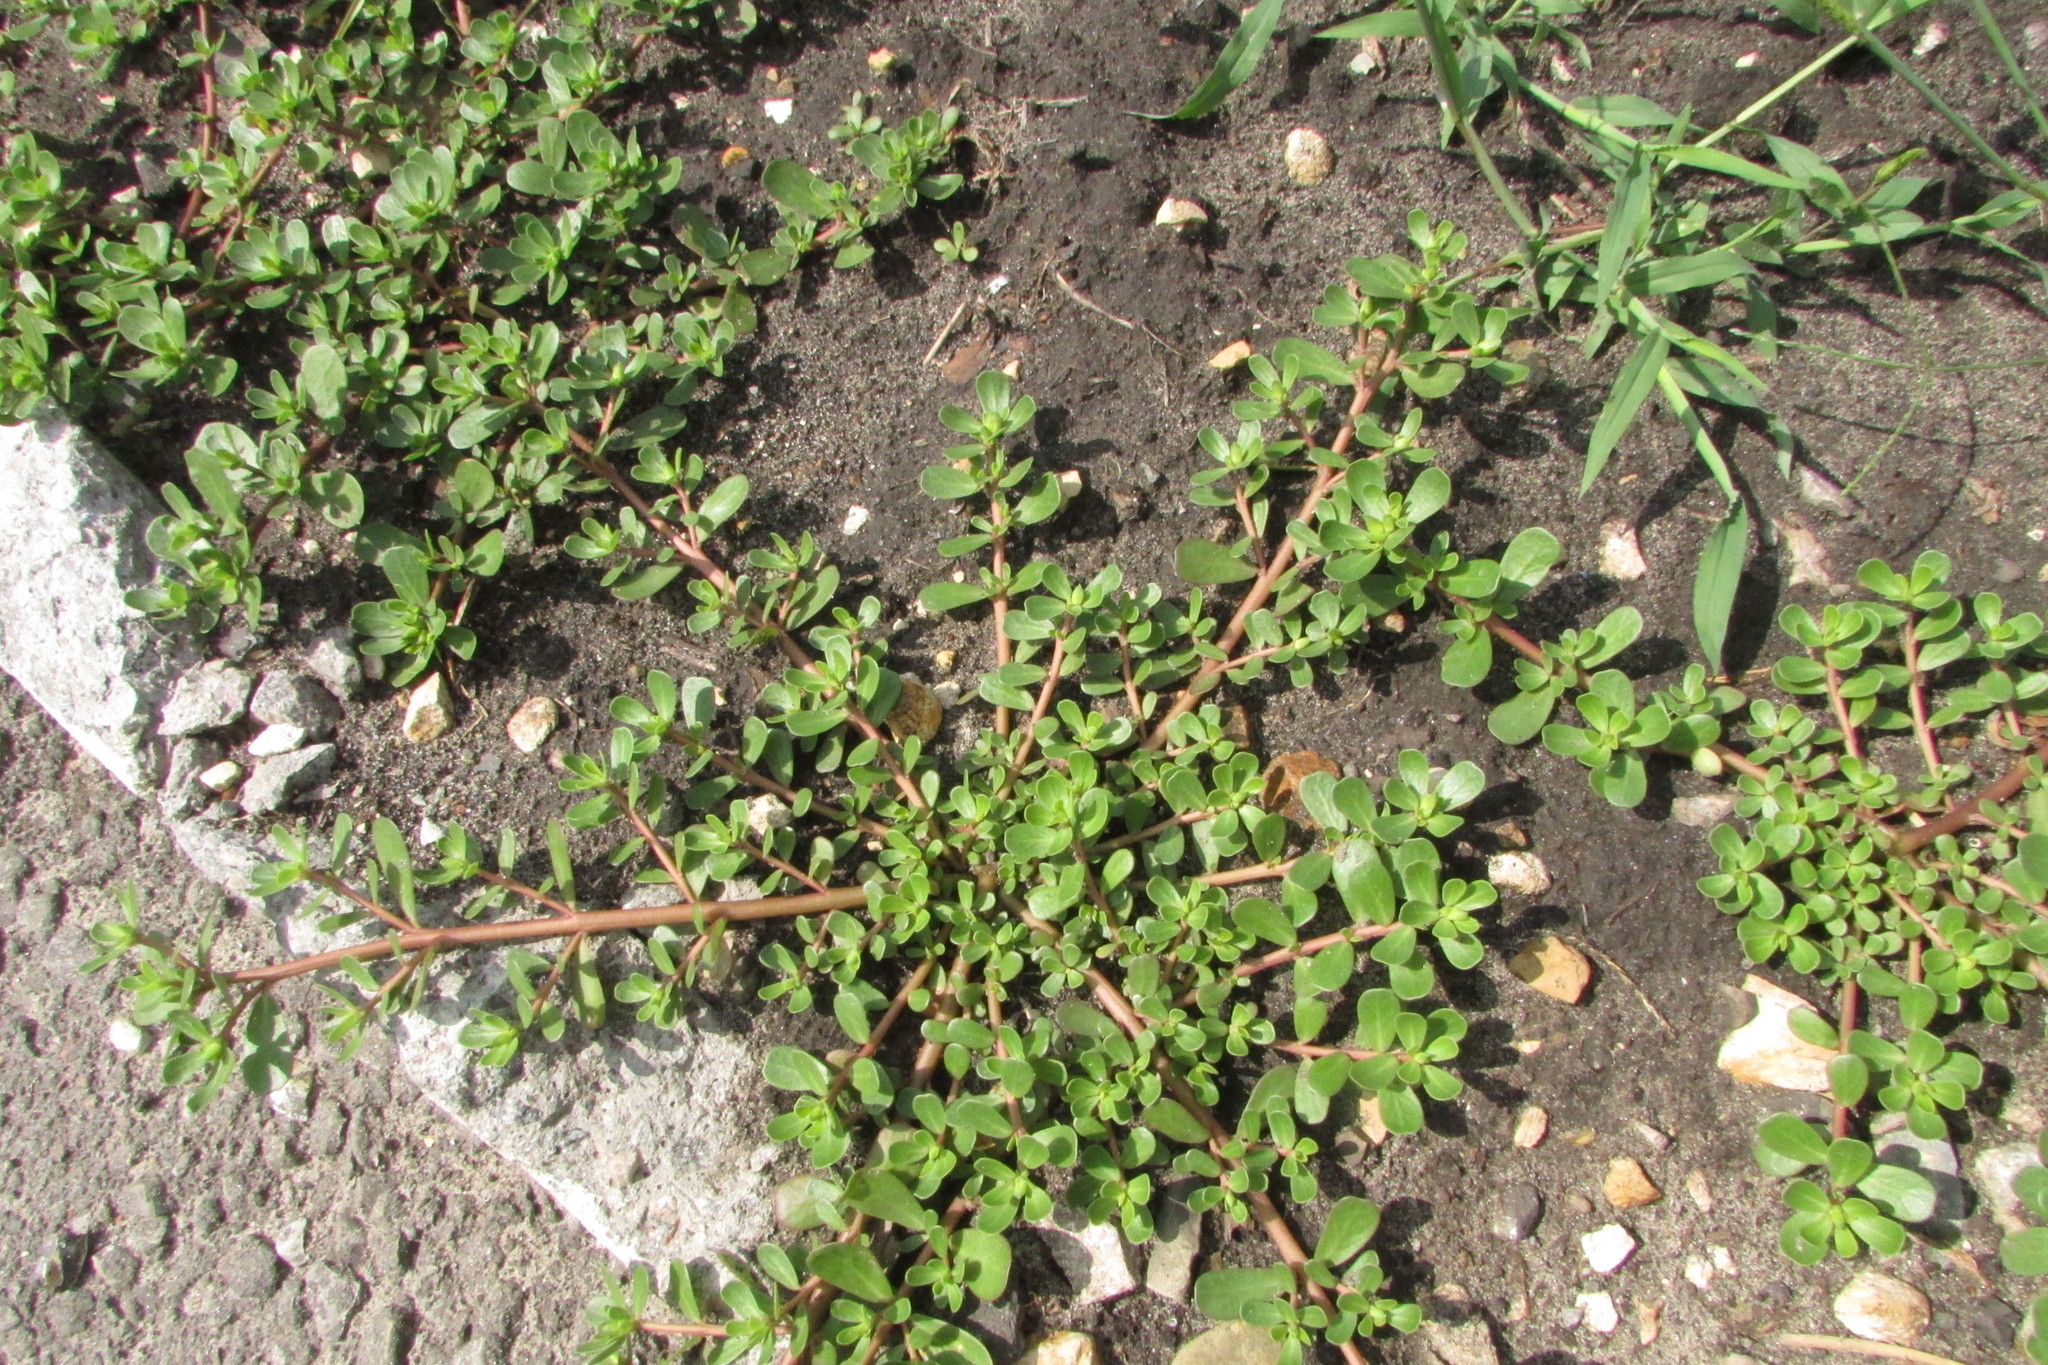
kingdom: Plantae
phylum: Tracheophyta
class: Magnoliopsida
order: Caryophyllales
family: Portulacaceae
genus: Portulaca
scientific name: Portulaca oleracea
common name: Common purslane
